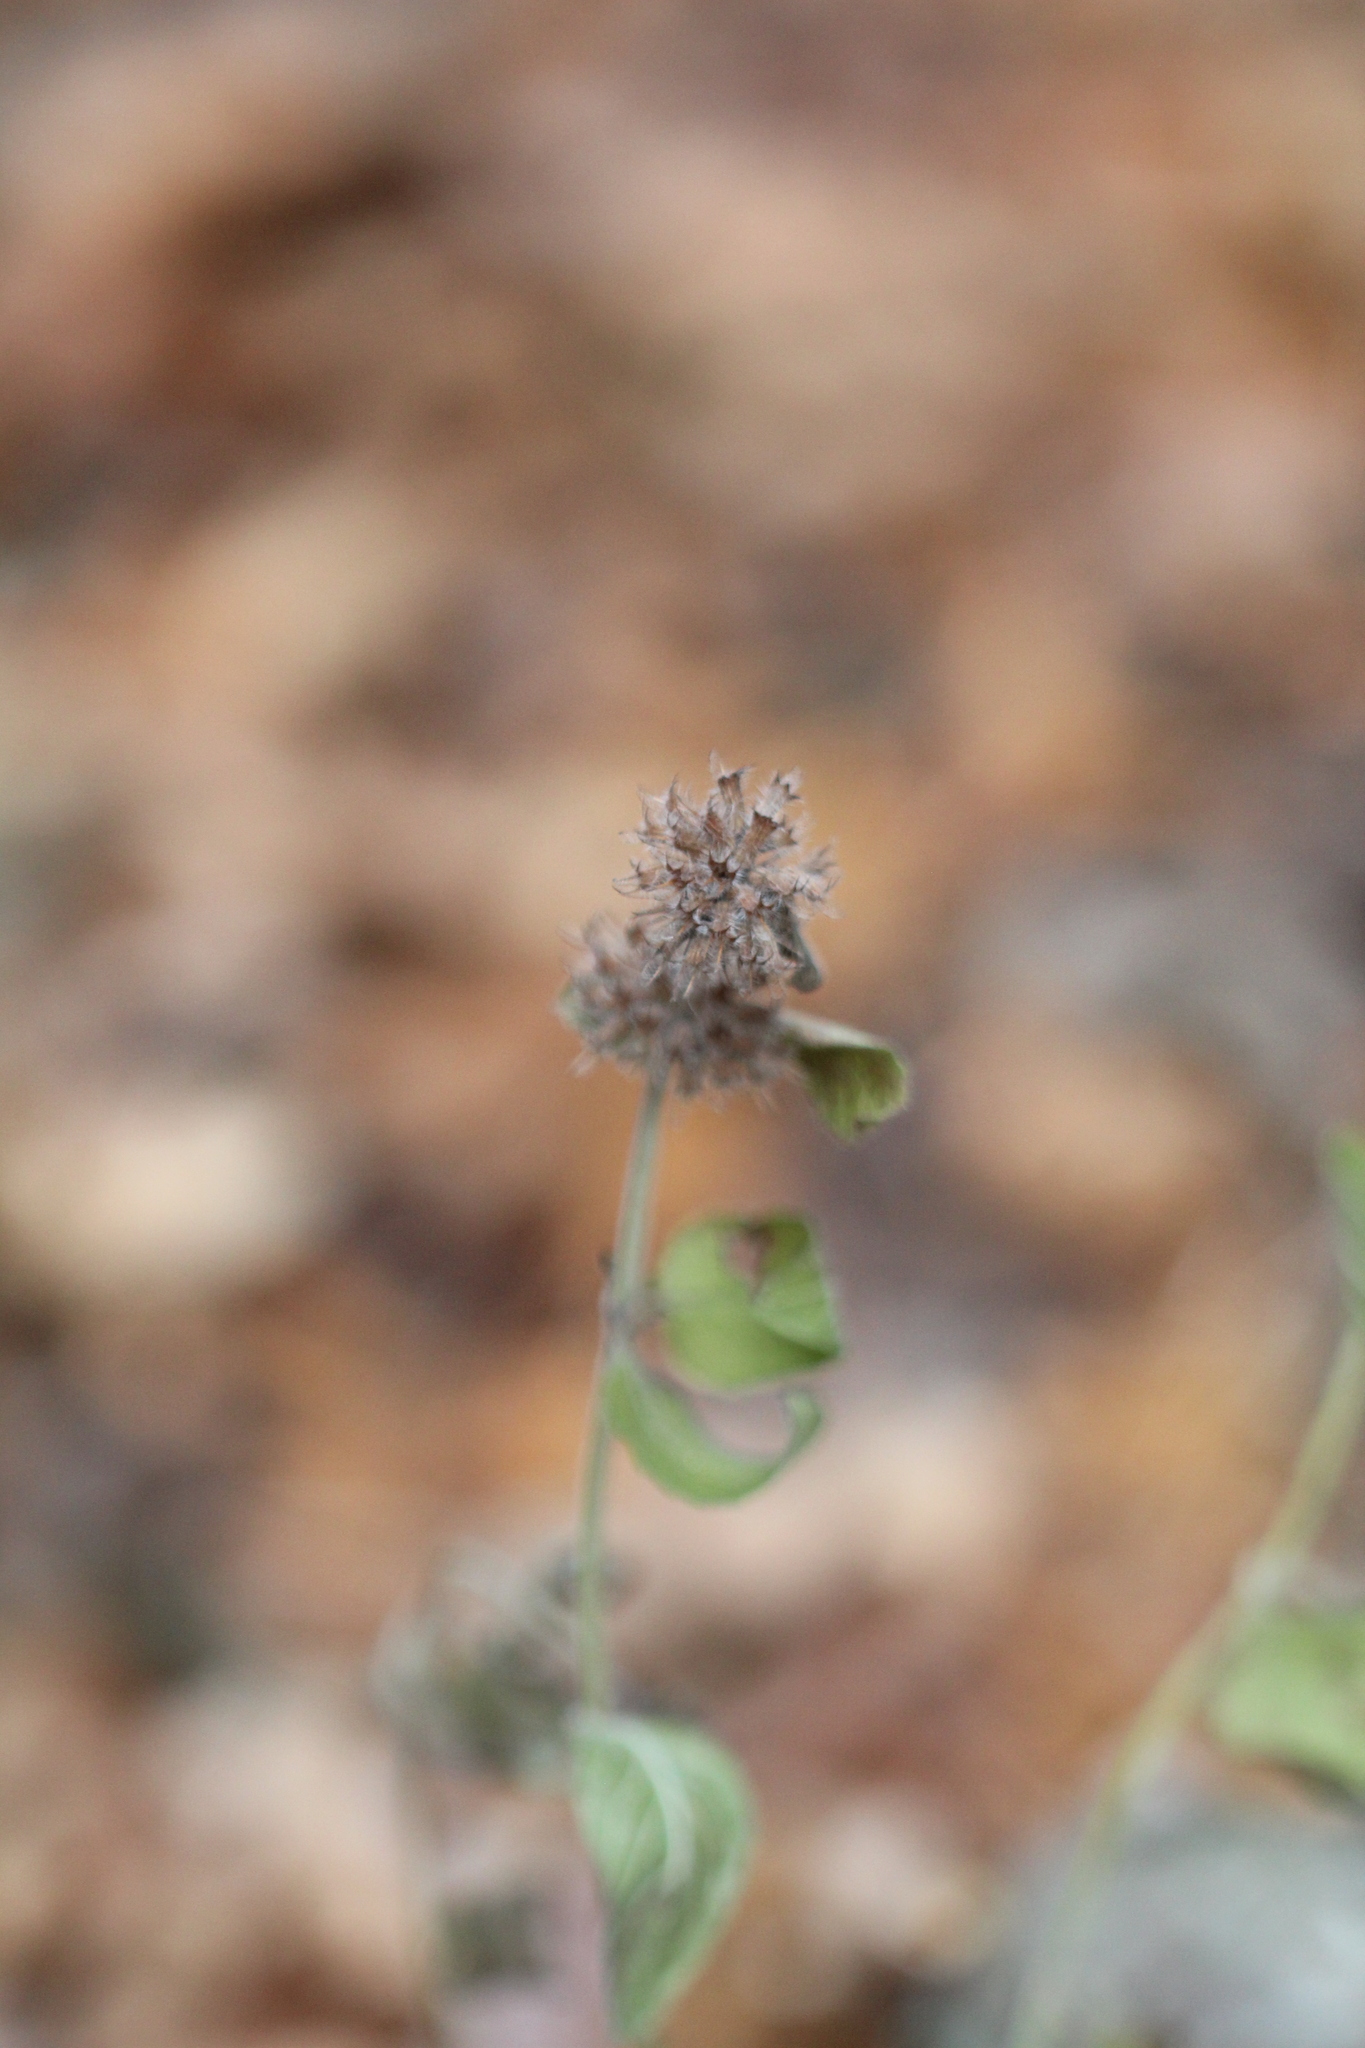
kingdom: Plantae
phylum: Tracheophyta
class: Magnoliopsida
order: Lamiales
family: Lamiaceae
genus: Clinopodium
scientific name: Clinopodium vulgare
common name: Wild basil
